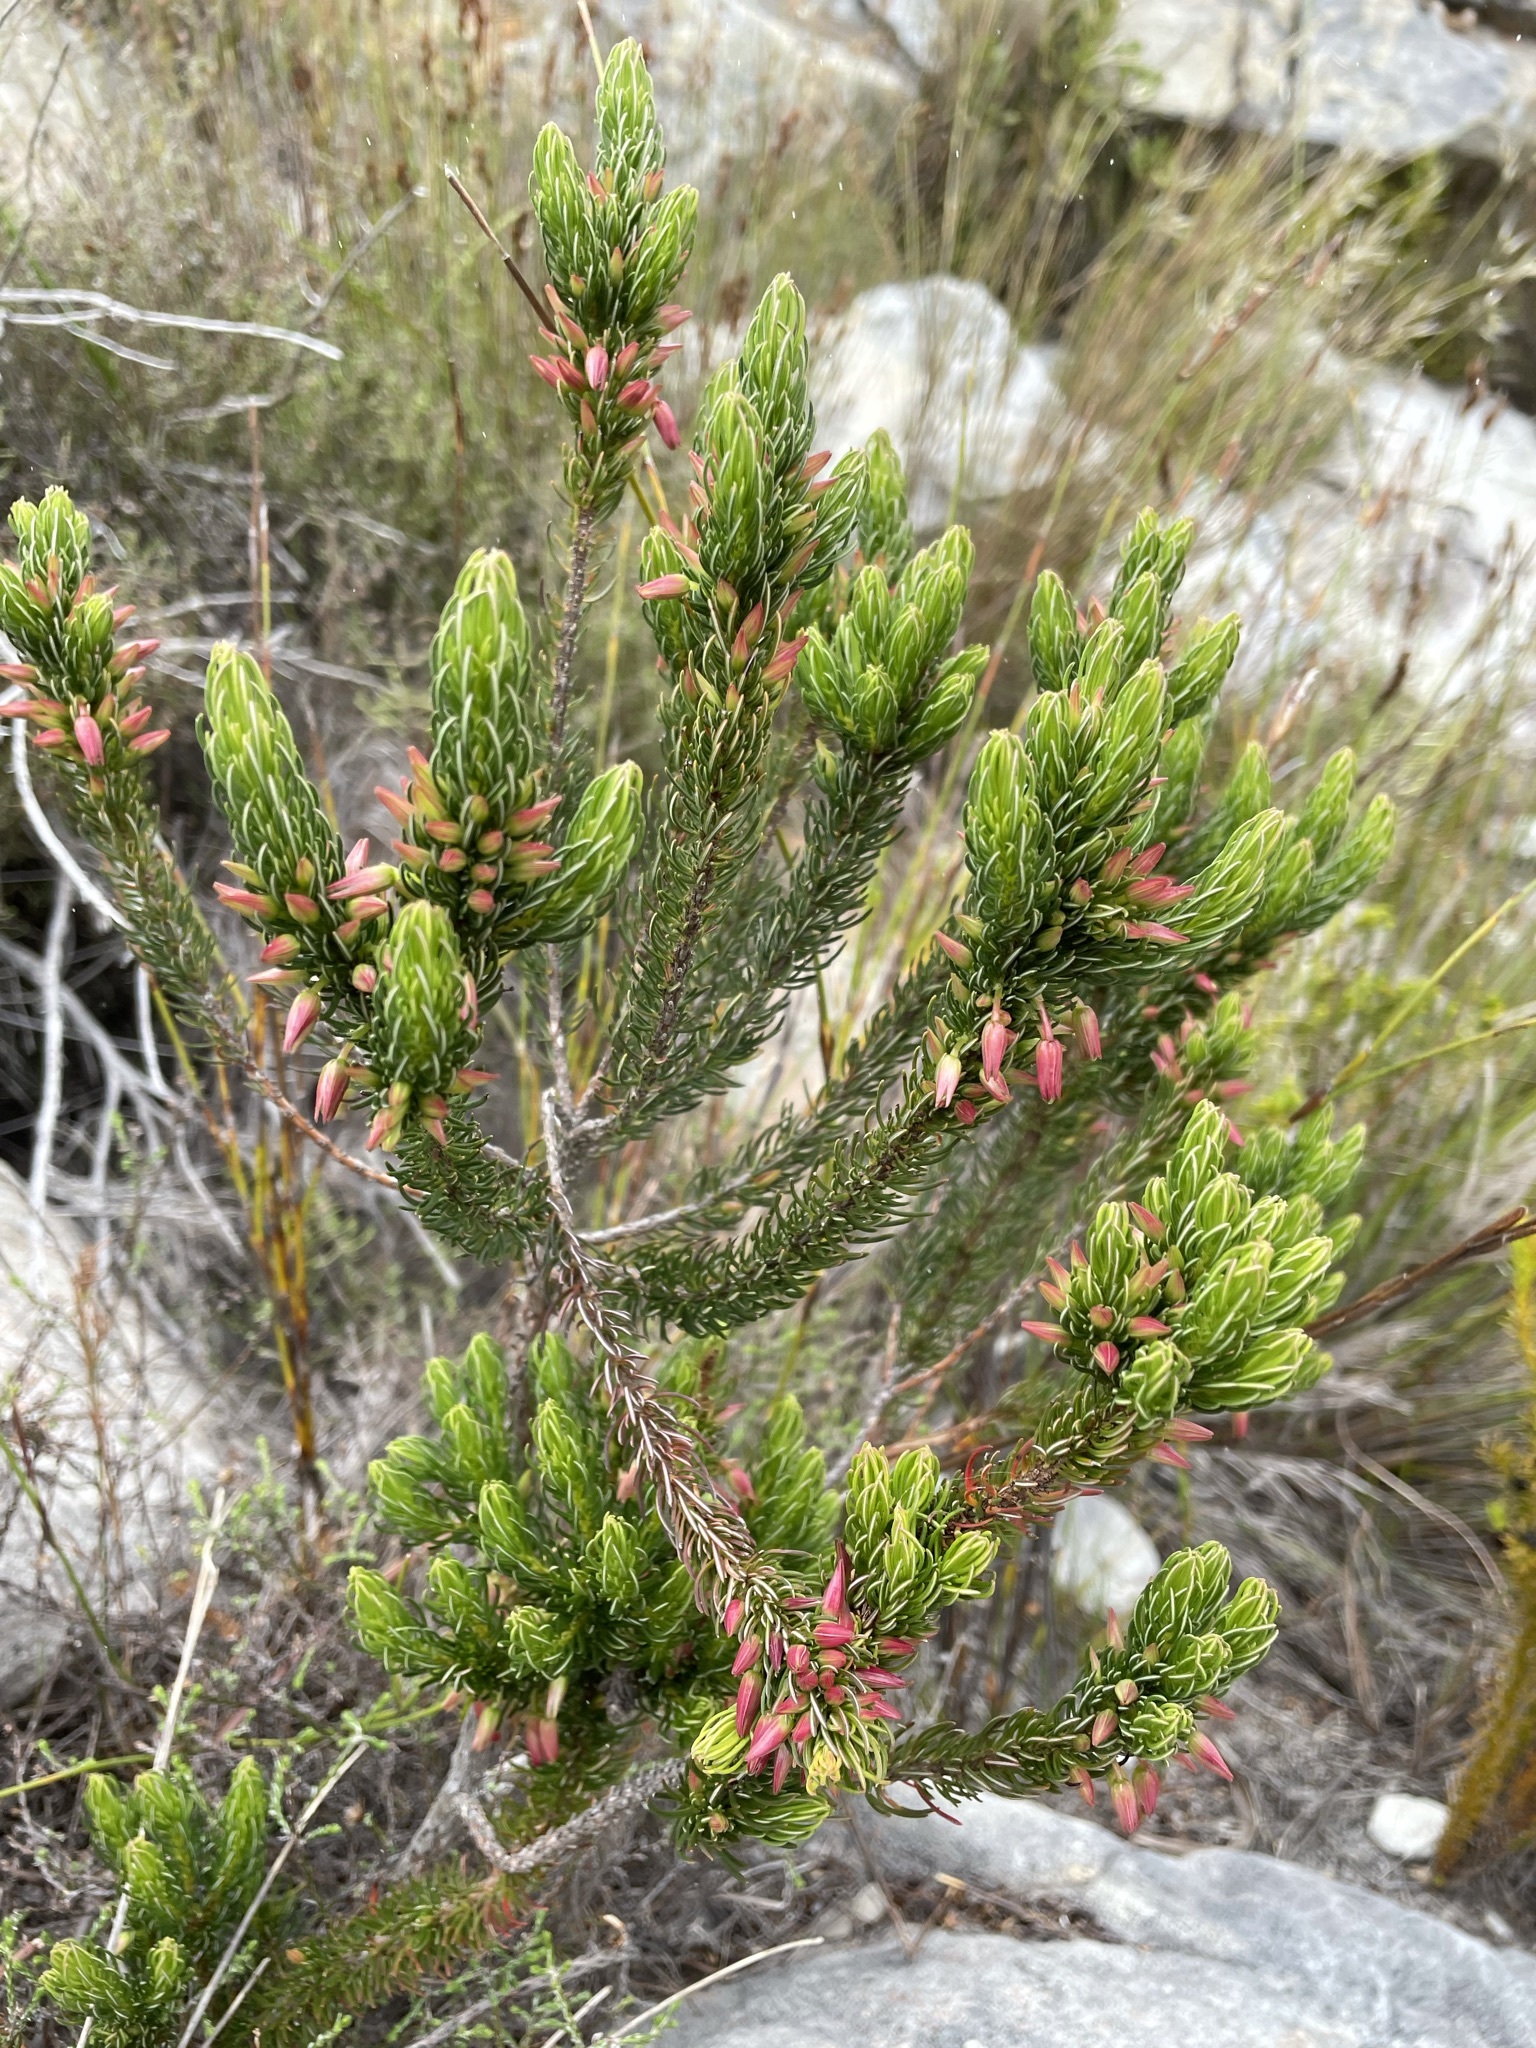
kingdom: Plantae
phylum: Tracheophyta
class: Magnoliopsida
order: Ericales
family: Ericaceae
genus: Erica
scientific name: Erica plukenetii
